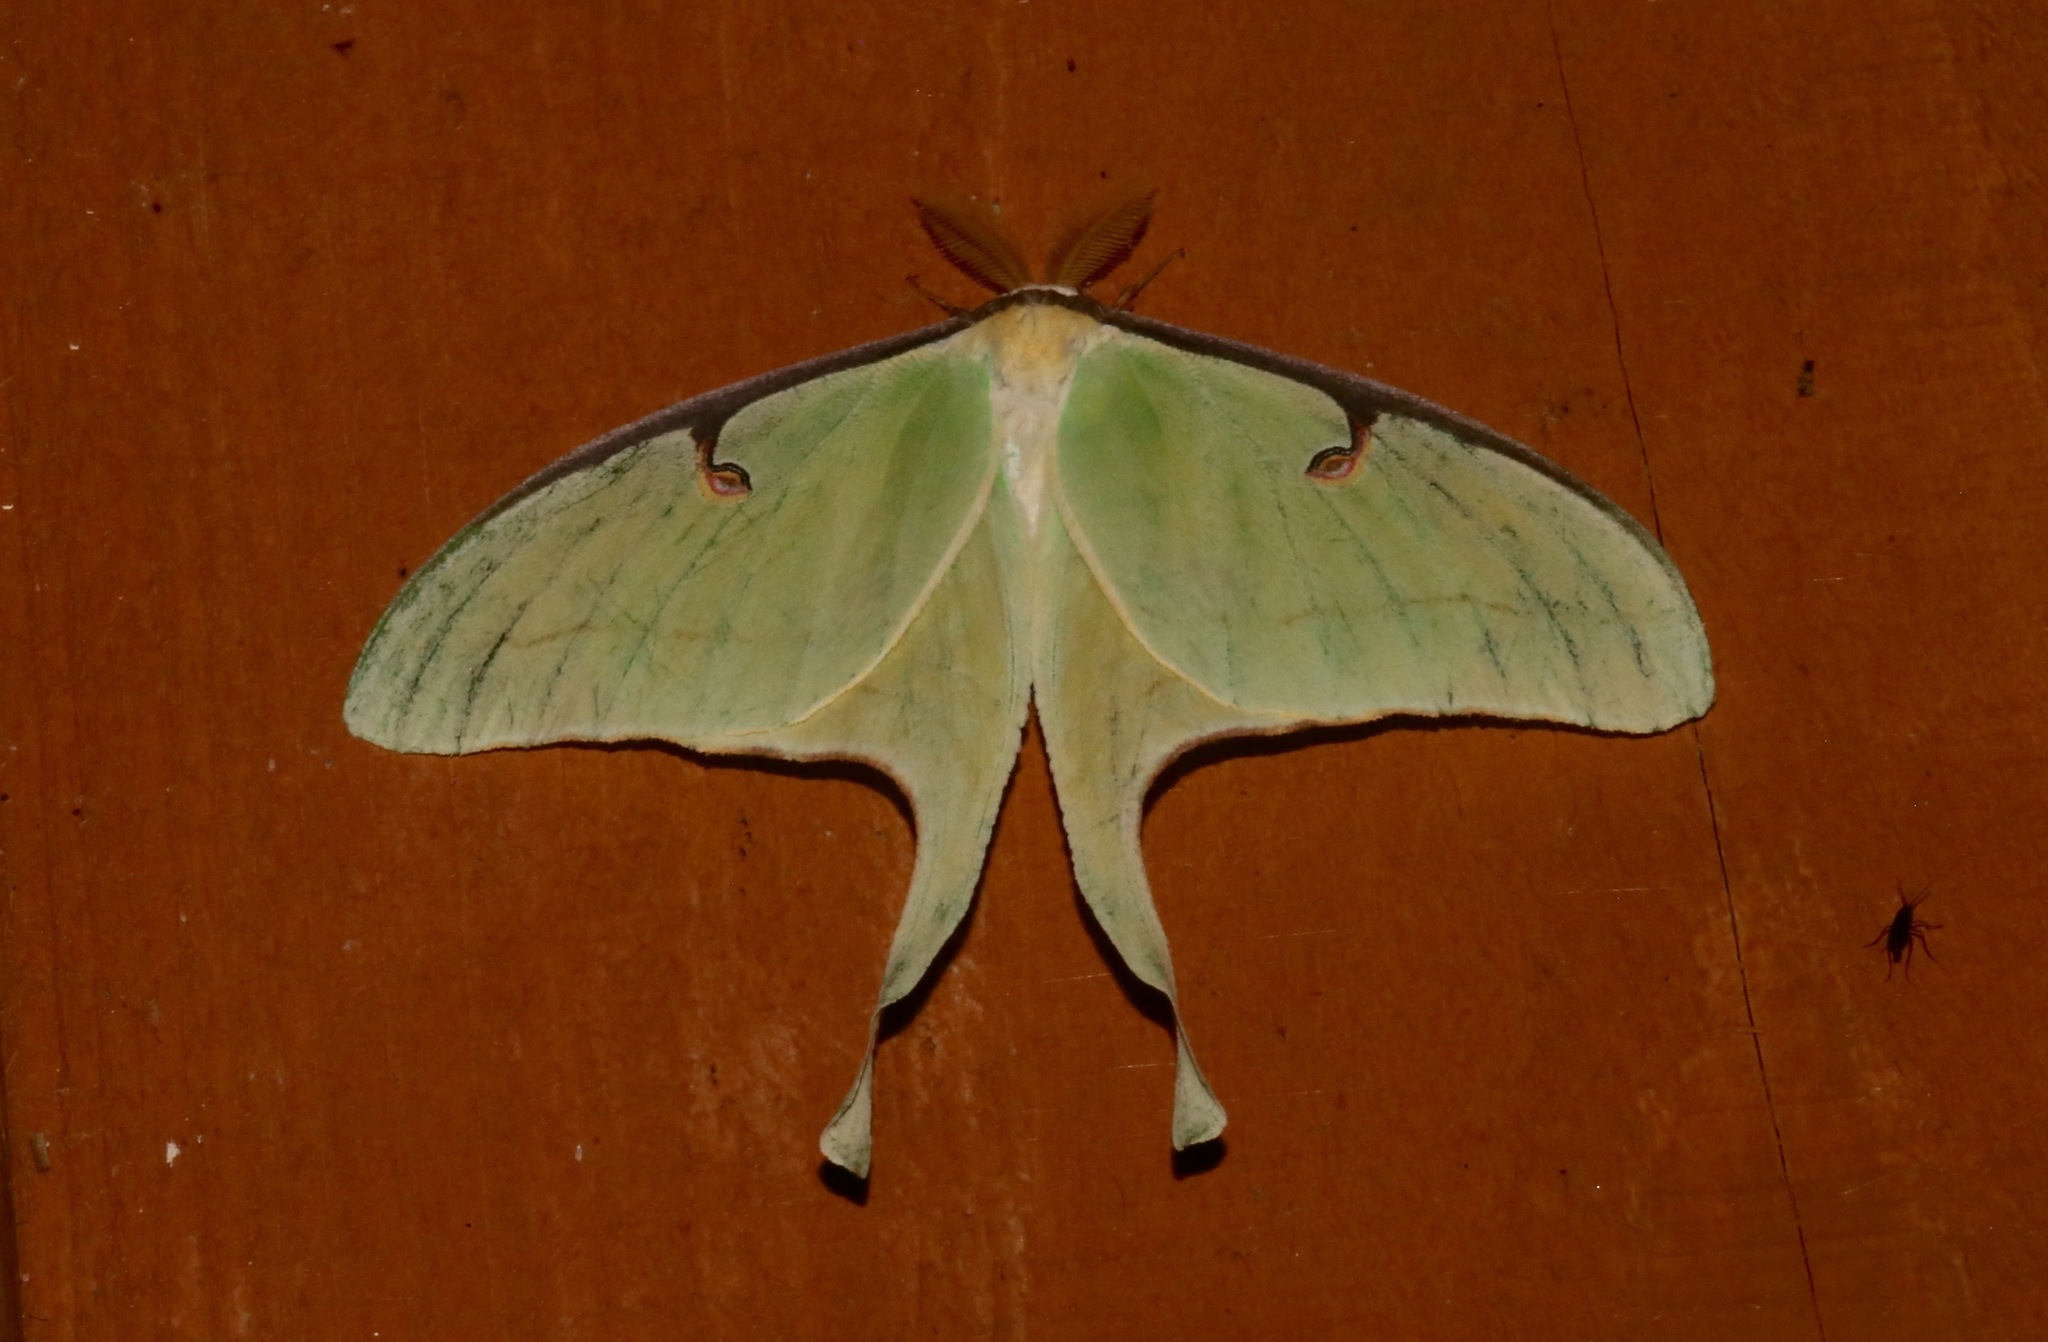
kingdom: Animalia
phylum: Arthropoda
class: Insecta
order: Lepidoptera
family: Saturniidae
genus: Actias
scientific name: Actias luna
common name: Luna moth
